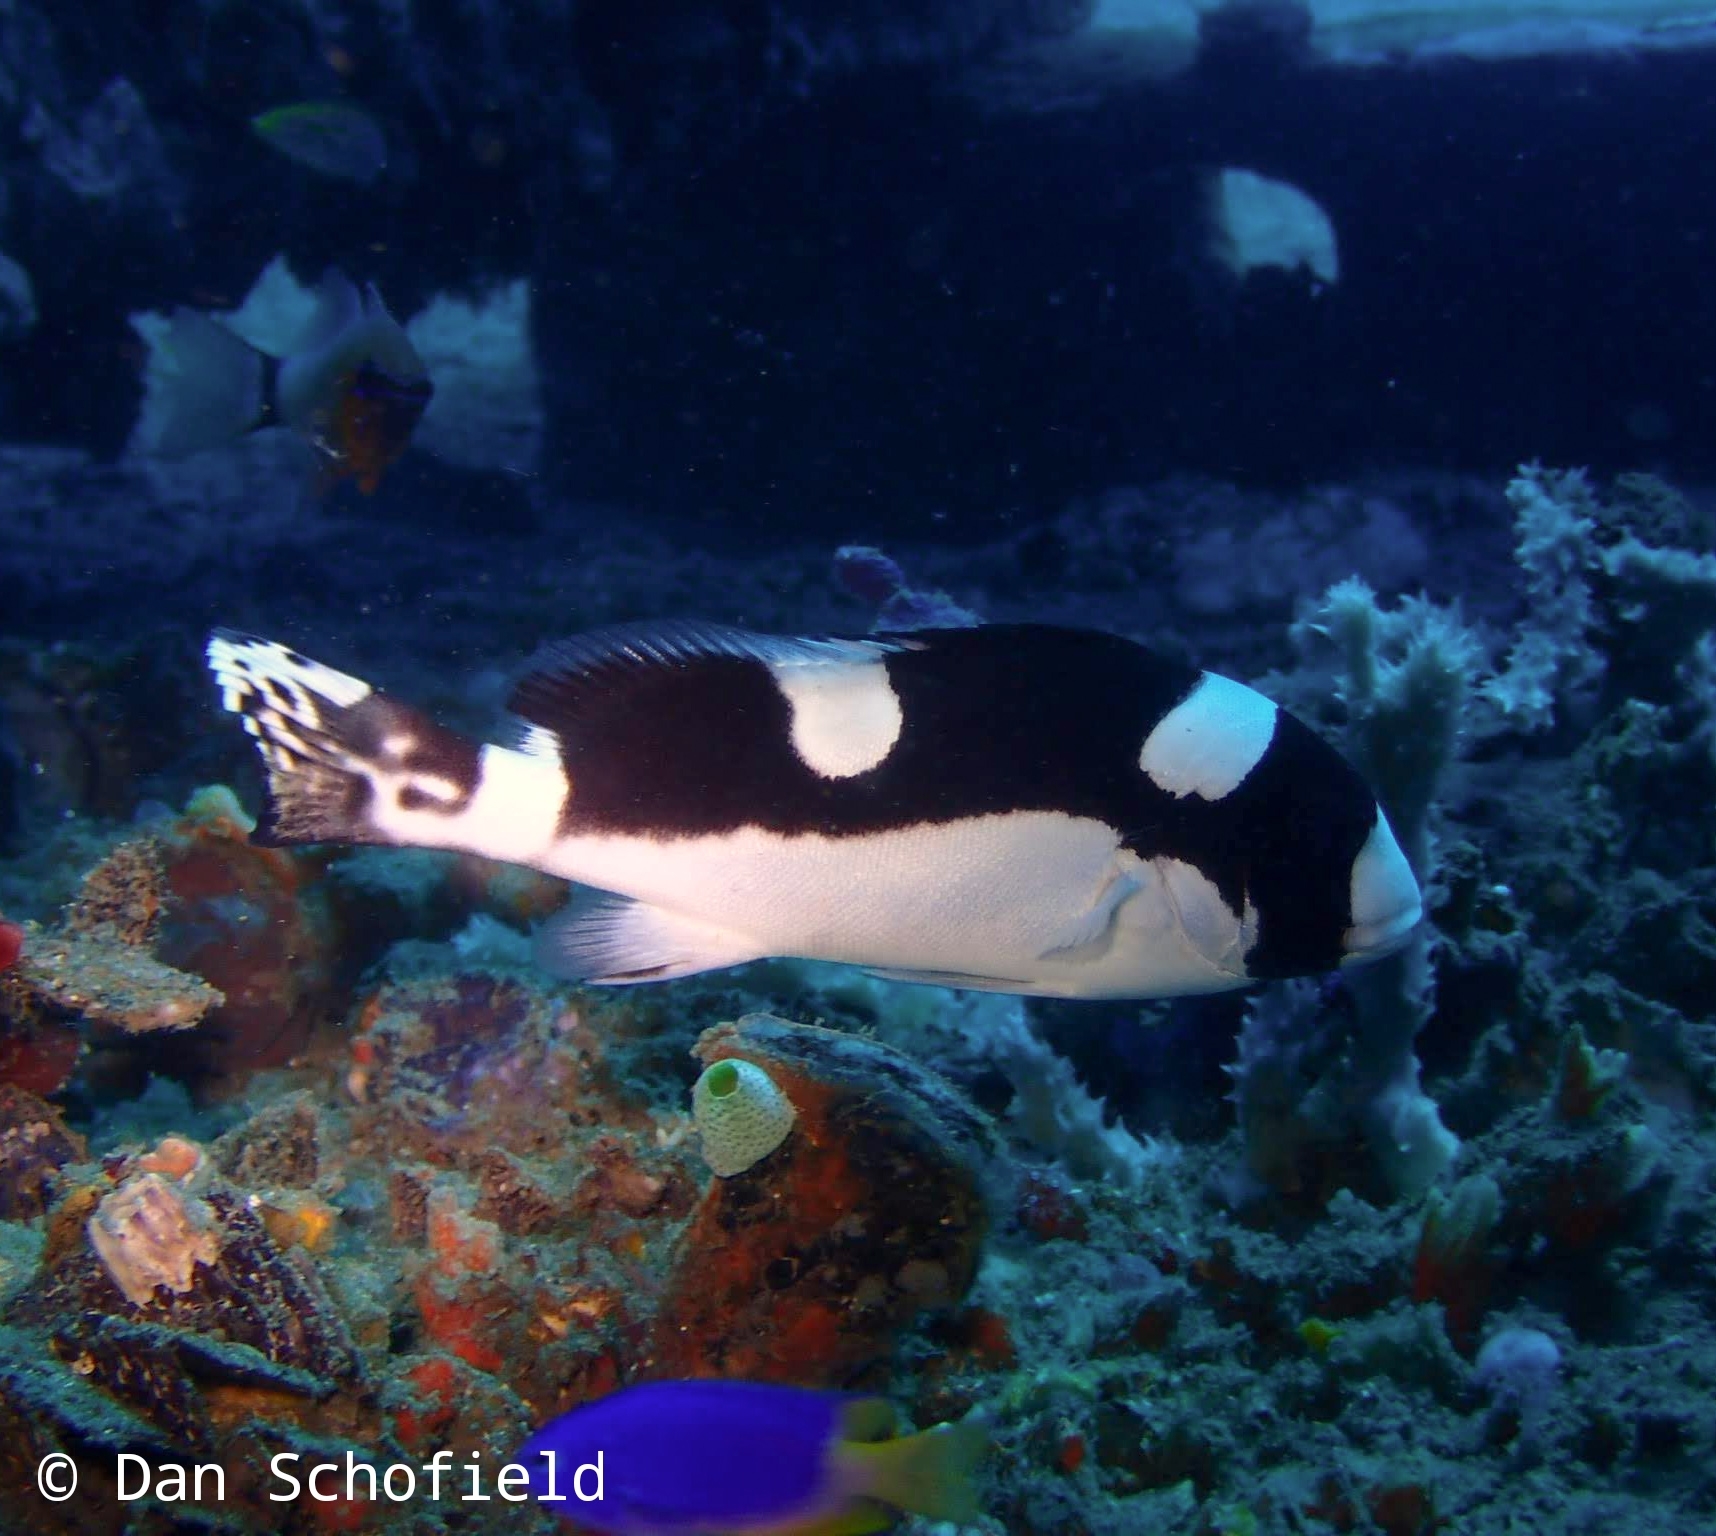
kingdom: Animalia
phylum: Chordata
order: Perciformes
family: Haemulidae
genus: Plectorhinchus
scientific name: Plectorhinchus picus
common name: Spotted sweetlips
